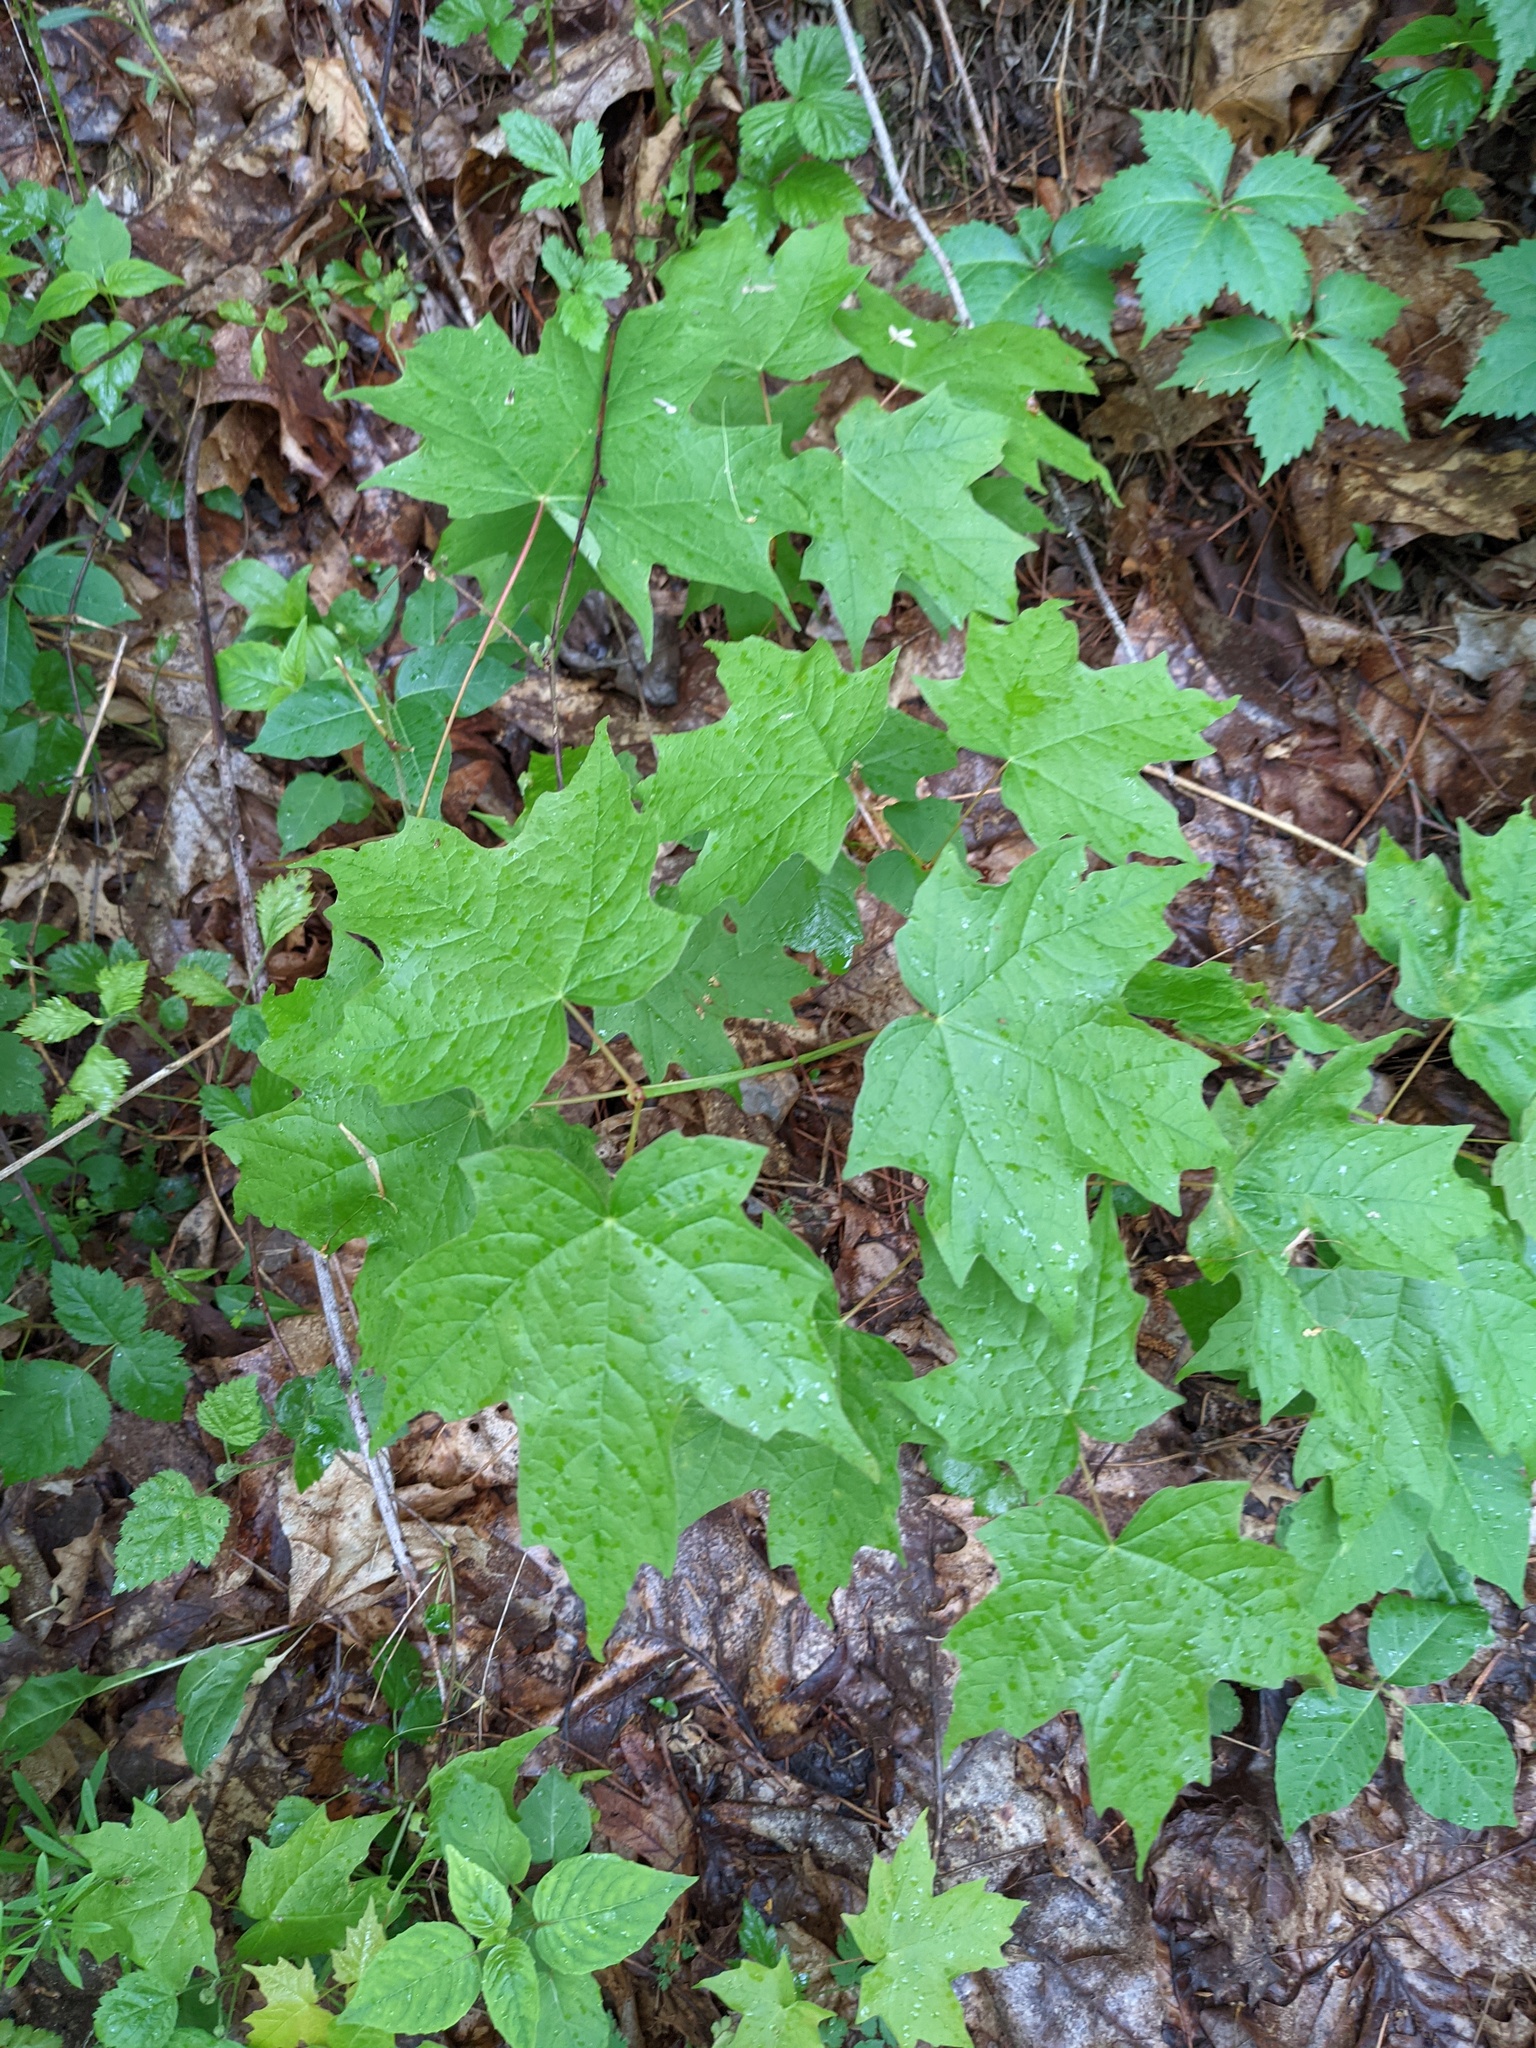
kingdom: Plantae
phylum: Tracheophyta
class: Magnoliopsida
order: Sapindales
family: Sapindaceae
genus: Acer
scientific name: Acer saccharum
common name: Sugar maple
